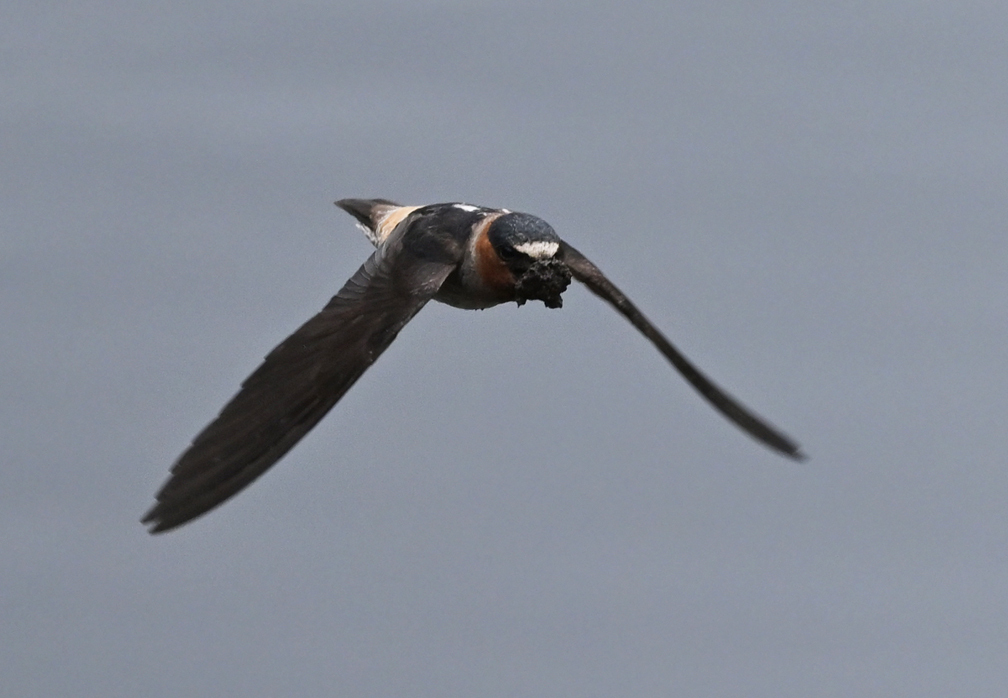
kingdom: Animalia
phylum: Chordata
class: Aves
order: Passeriformes
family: Hirundinidae
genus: Petrochelidon
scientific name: Petrochelidon pyrrhonota
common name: American cliff swallow
